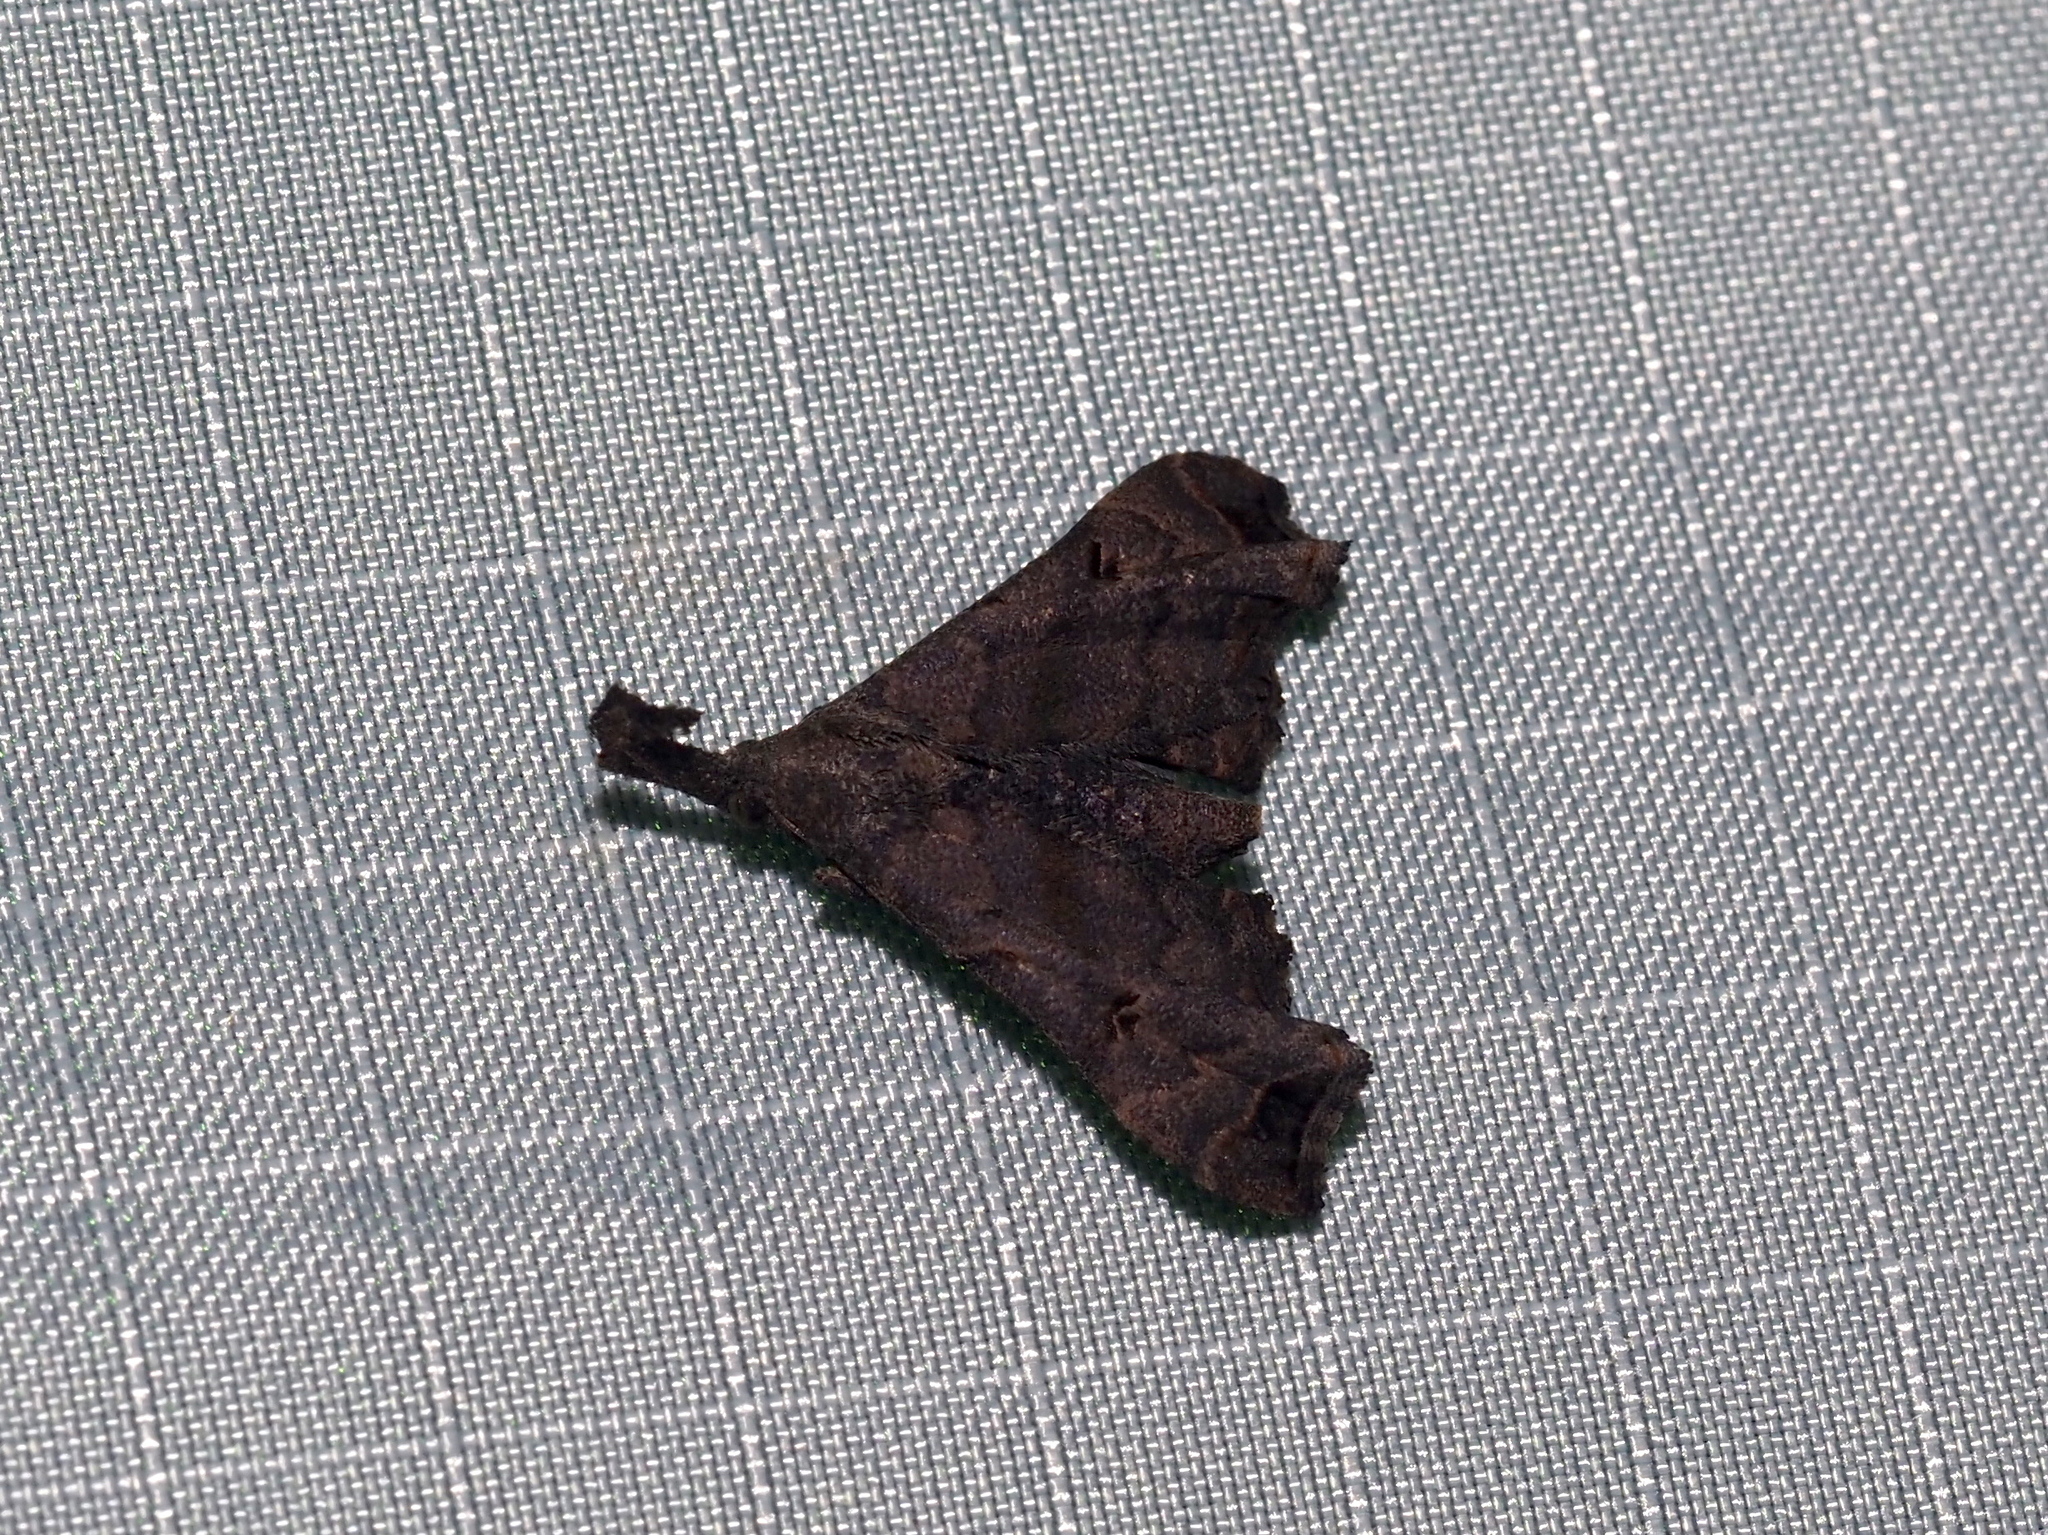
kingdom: Animalia
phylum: Arthropoda
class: Insecta
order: Lepidoptera
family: Erebidae
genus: Palthis
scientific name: Palthis asopialis
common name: Faint-spotted palthis moth
